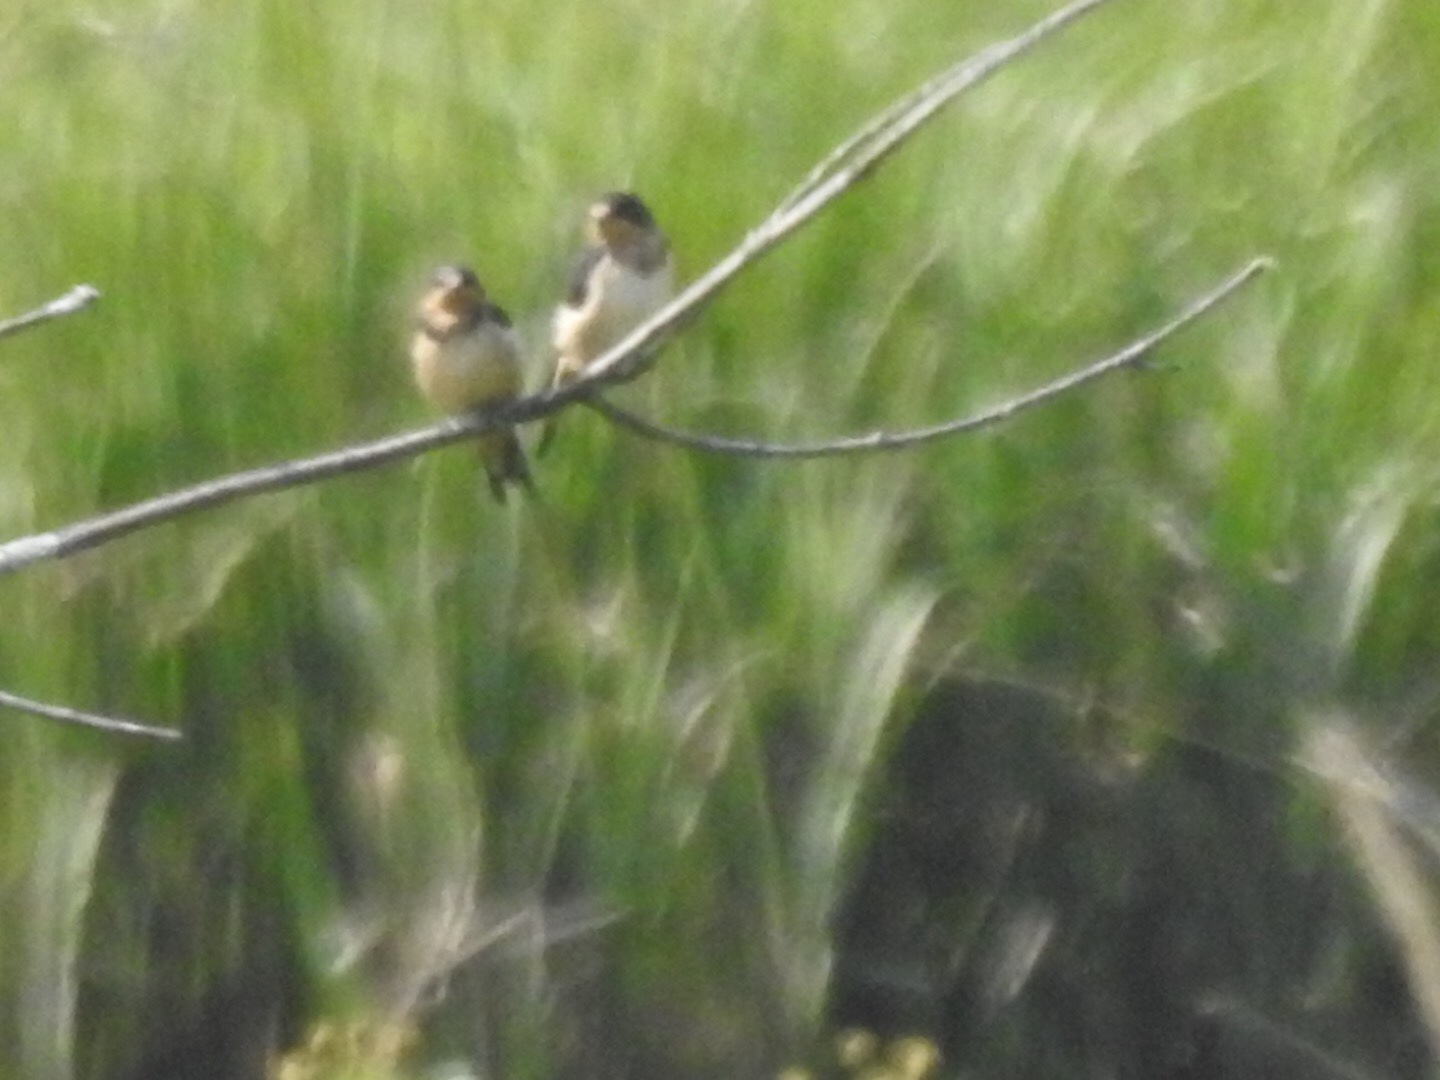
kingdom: Animalia
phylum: Chordata
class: Aves
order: Passeriformes
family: Hirundinidae
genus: Hirundo
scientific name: Hirundo rustica
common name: Barn swallow
